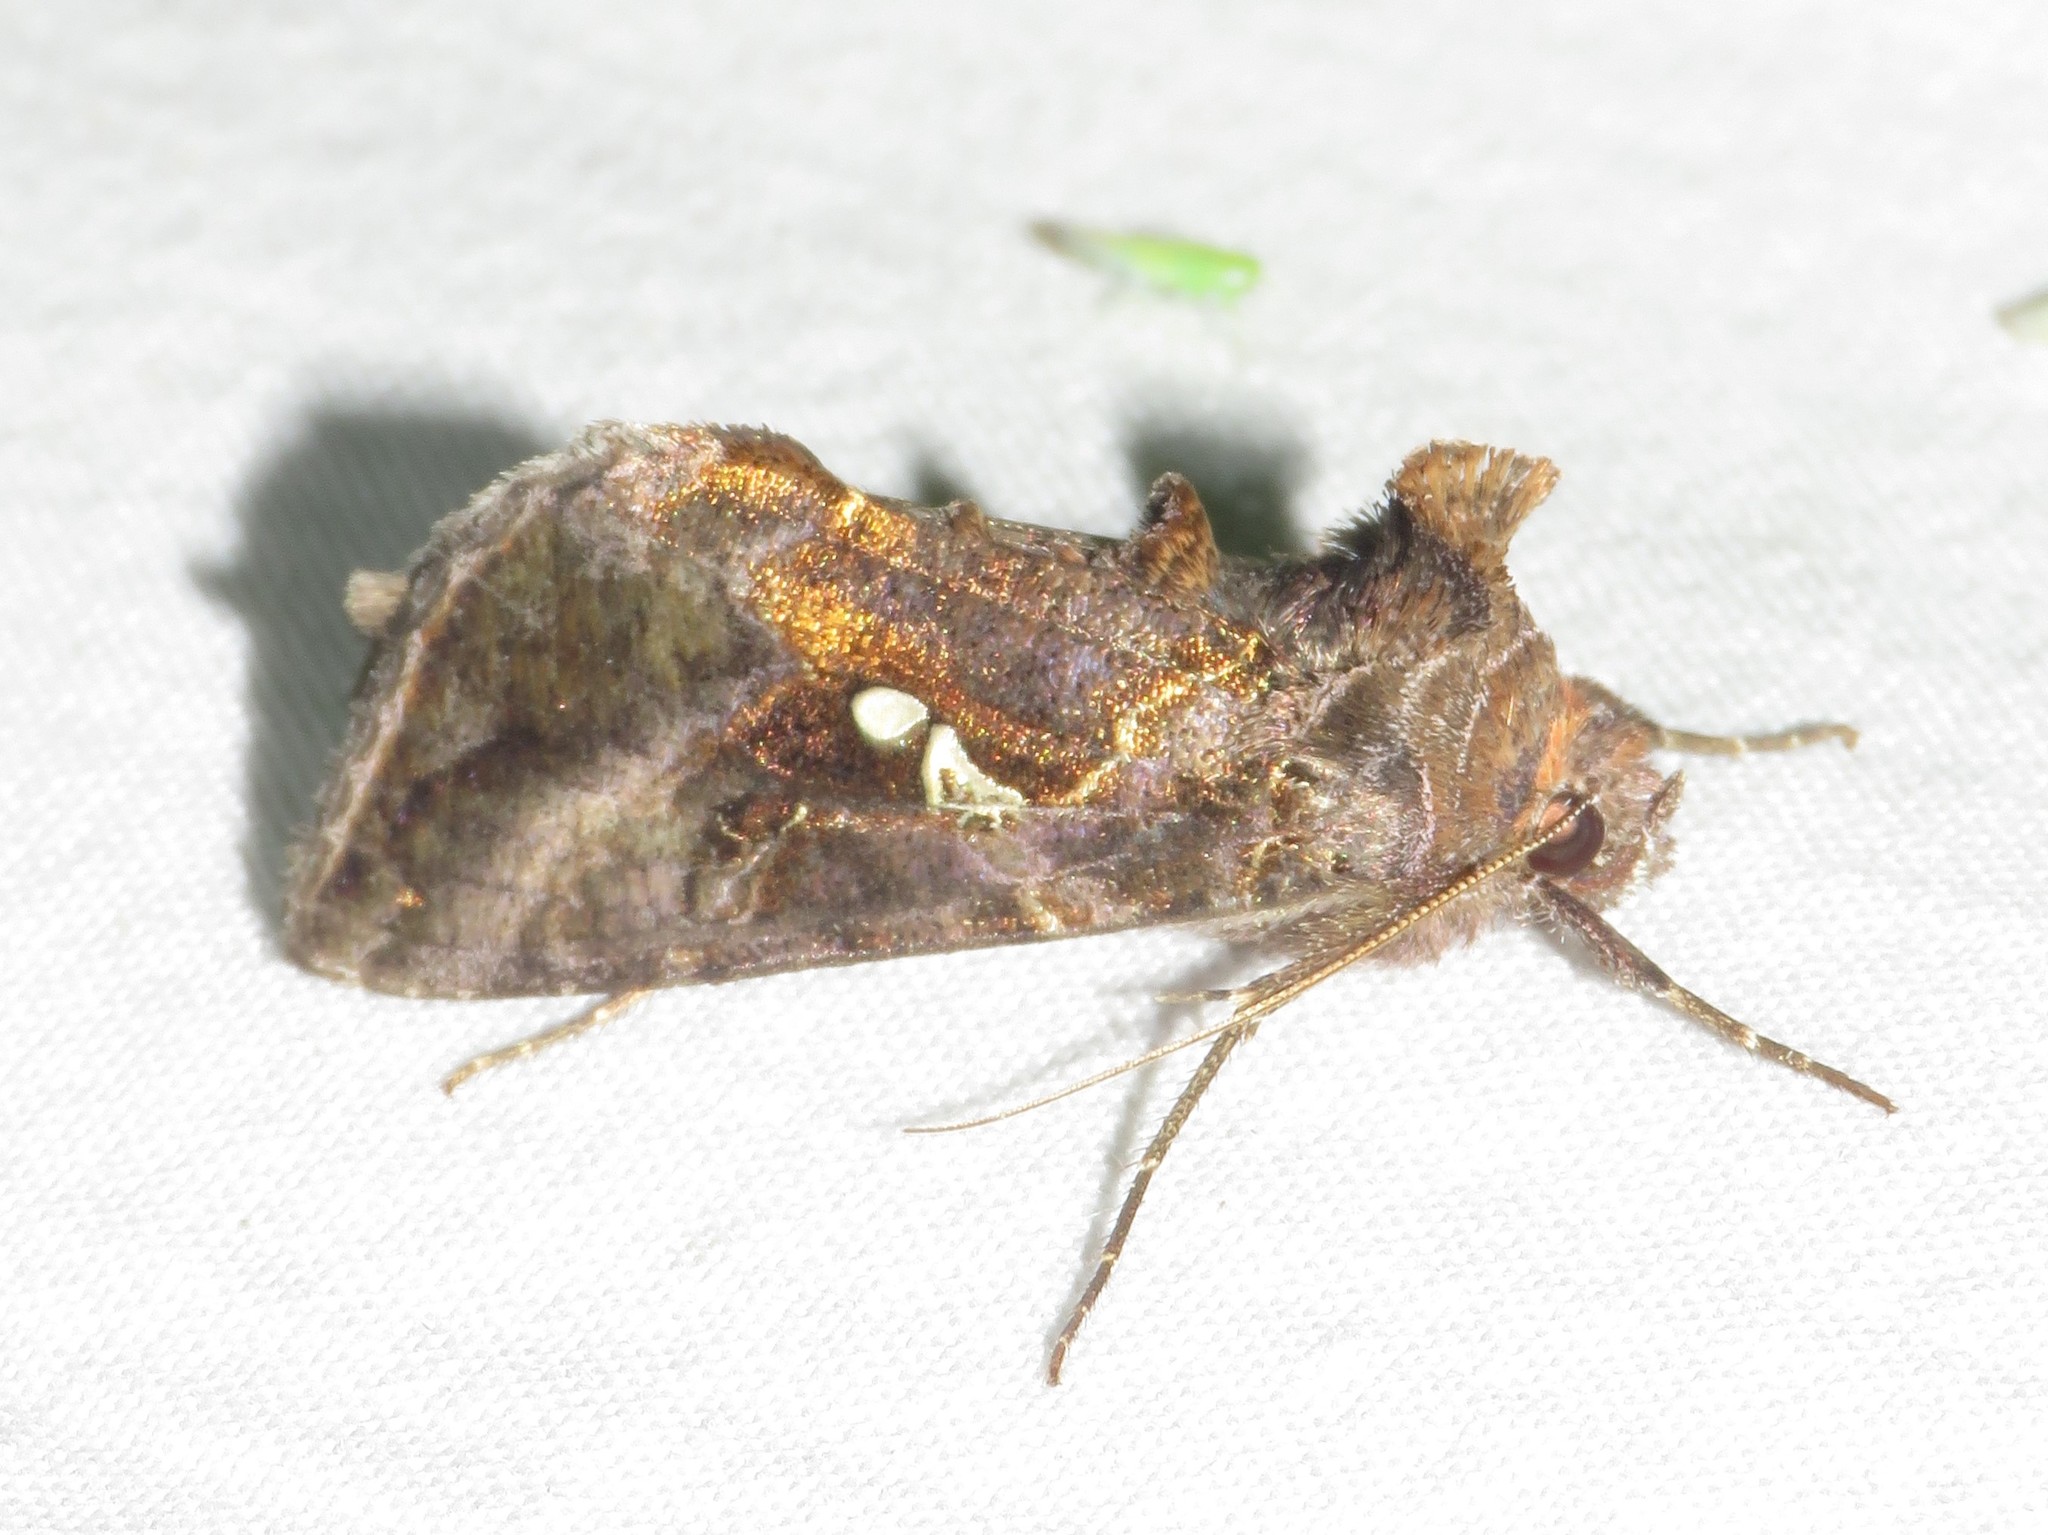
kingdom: Animalia
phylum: Arthropoda
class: Insecta
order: Lepidoptera
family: Noctuidae
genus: Autographa
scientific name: Autographa precationis
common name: Common looper moth
